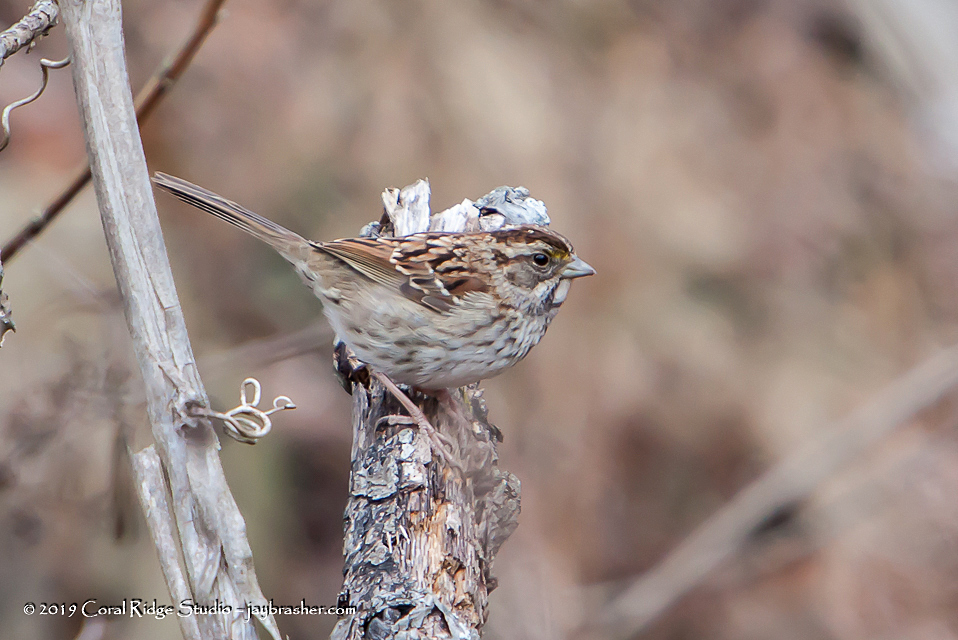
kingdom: Animalia
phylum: Chordata
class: Aves
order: Passeriformes
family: Passerellidae
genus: Zonotrichia
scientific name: Zonotrichia albicollis
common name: White-throated sparrow
